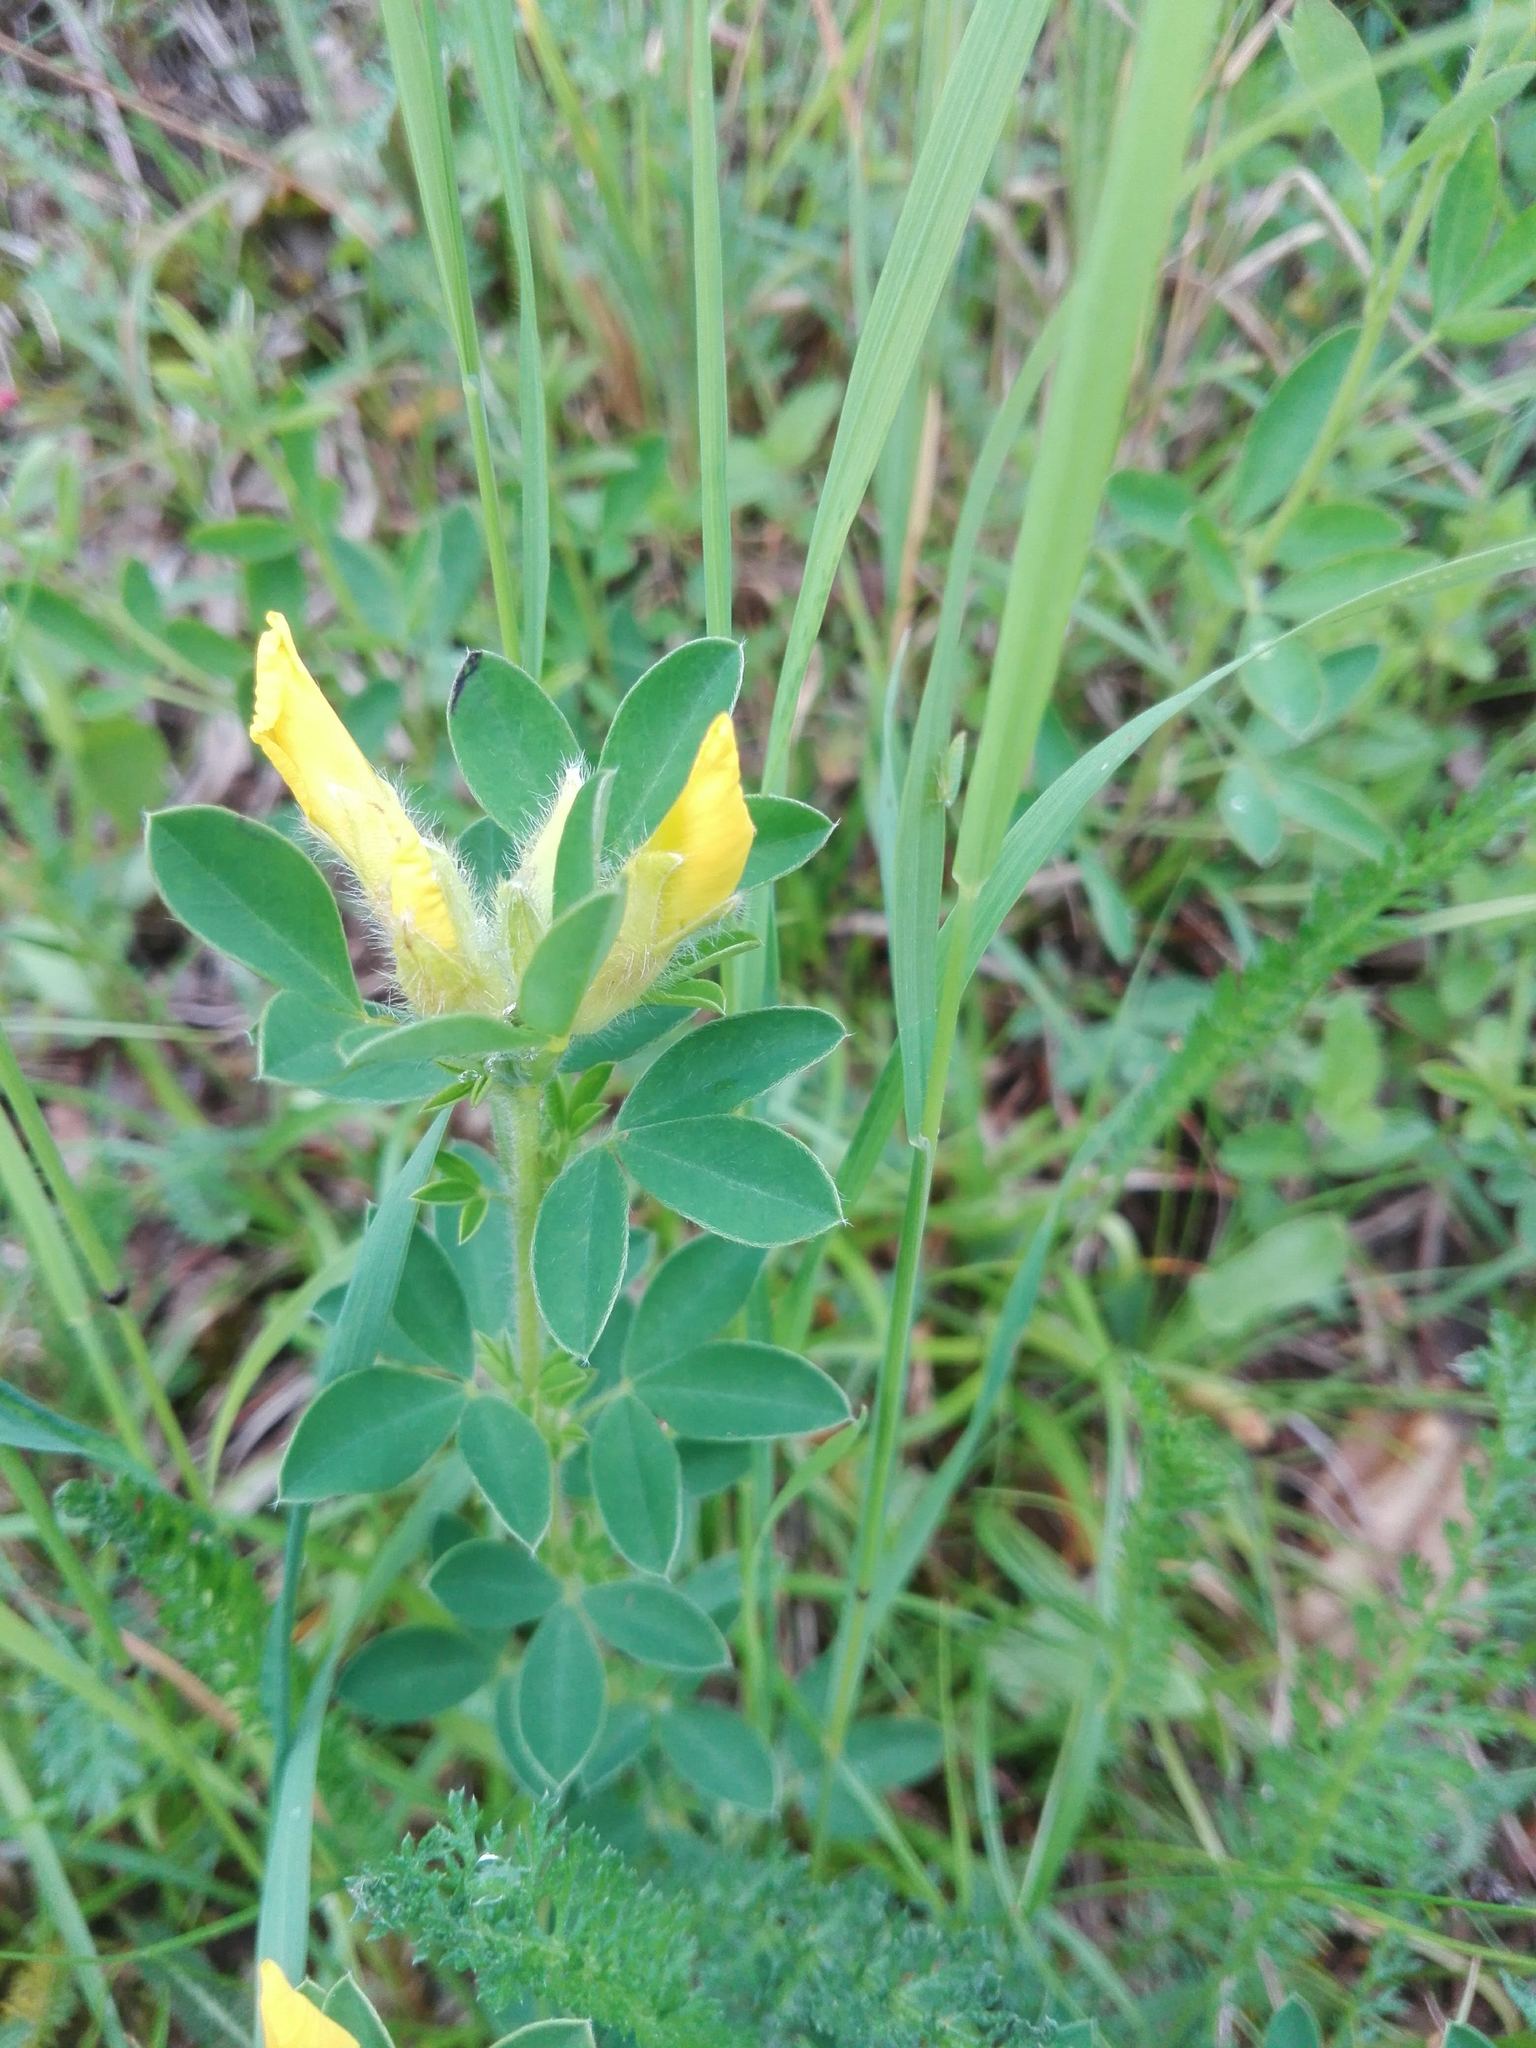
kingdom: Plantae
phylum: Tracheophyta
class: Magnoliopsida
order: Fabales
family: Fabaceae
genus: Chamaecytisus
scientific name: Chamaecytisus hirsutus
